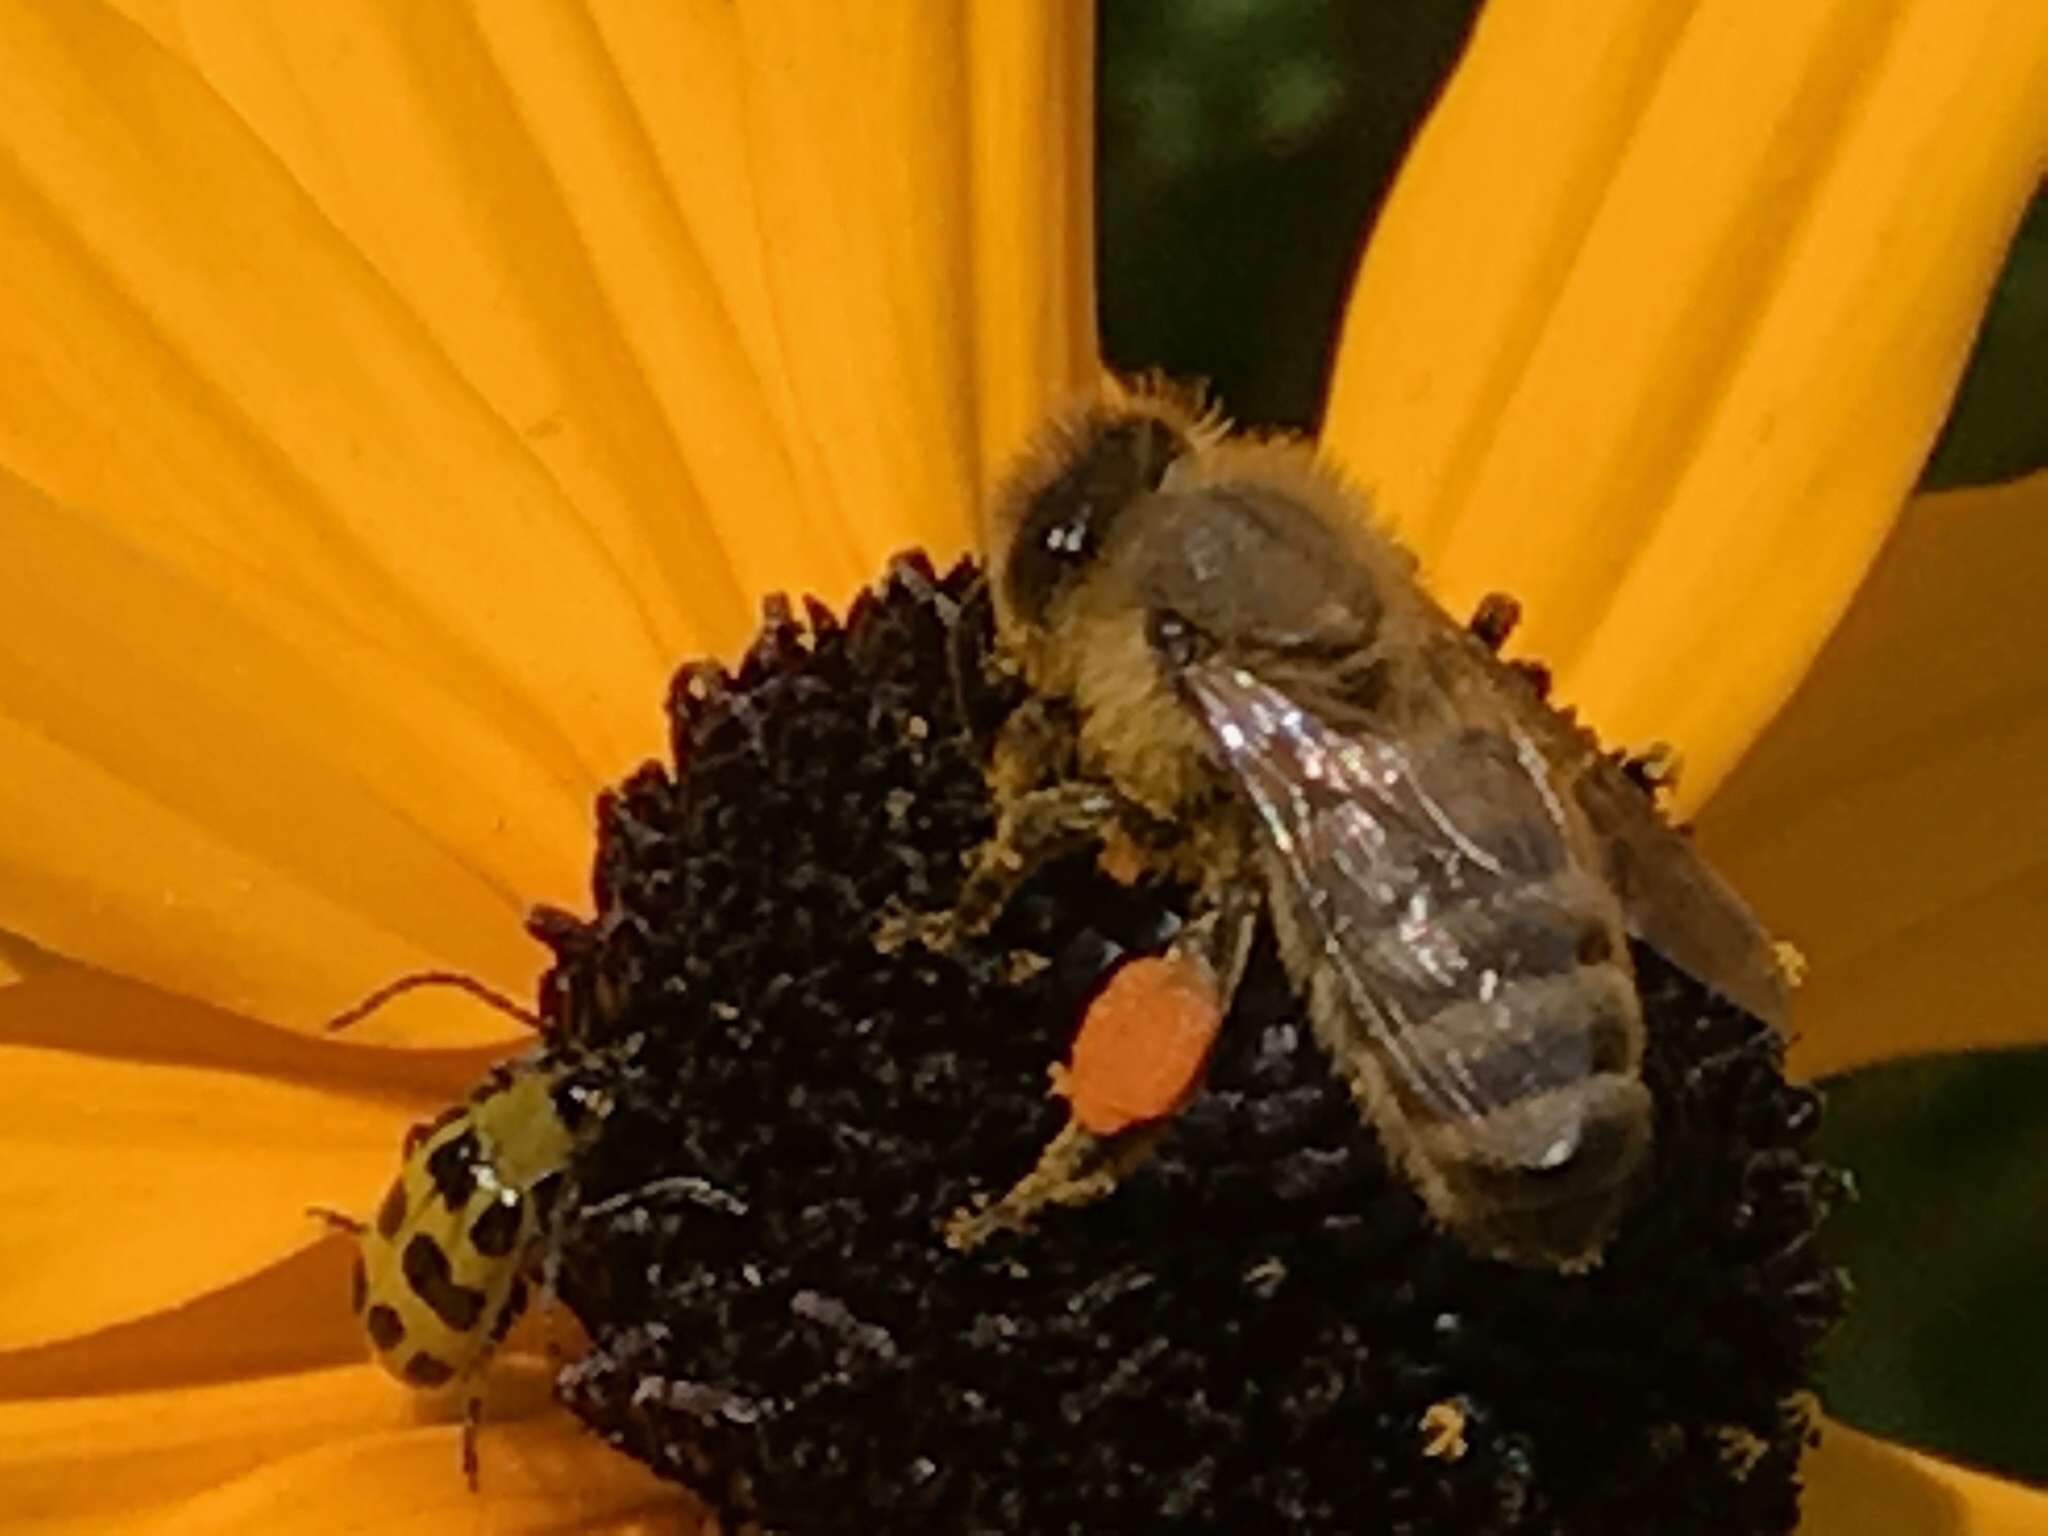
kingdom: Animalia
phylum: Arthropoda
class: Insecta
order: Hymenoptera
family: Apidae
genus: Apis
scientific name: Apis mellifera
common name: Honey bee
